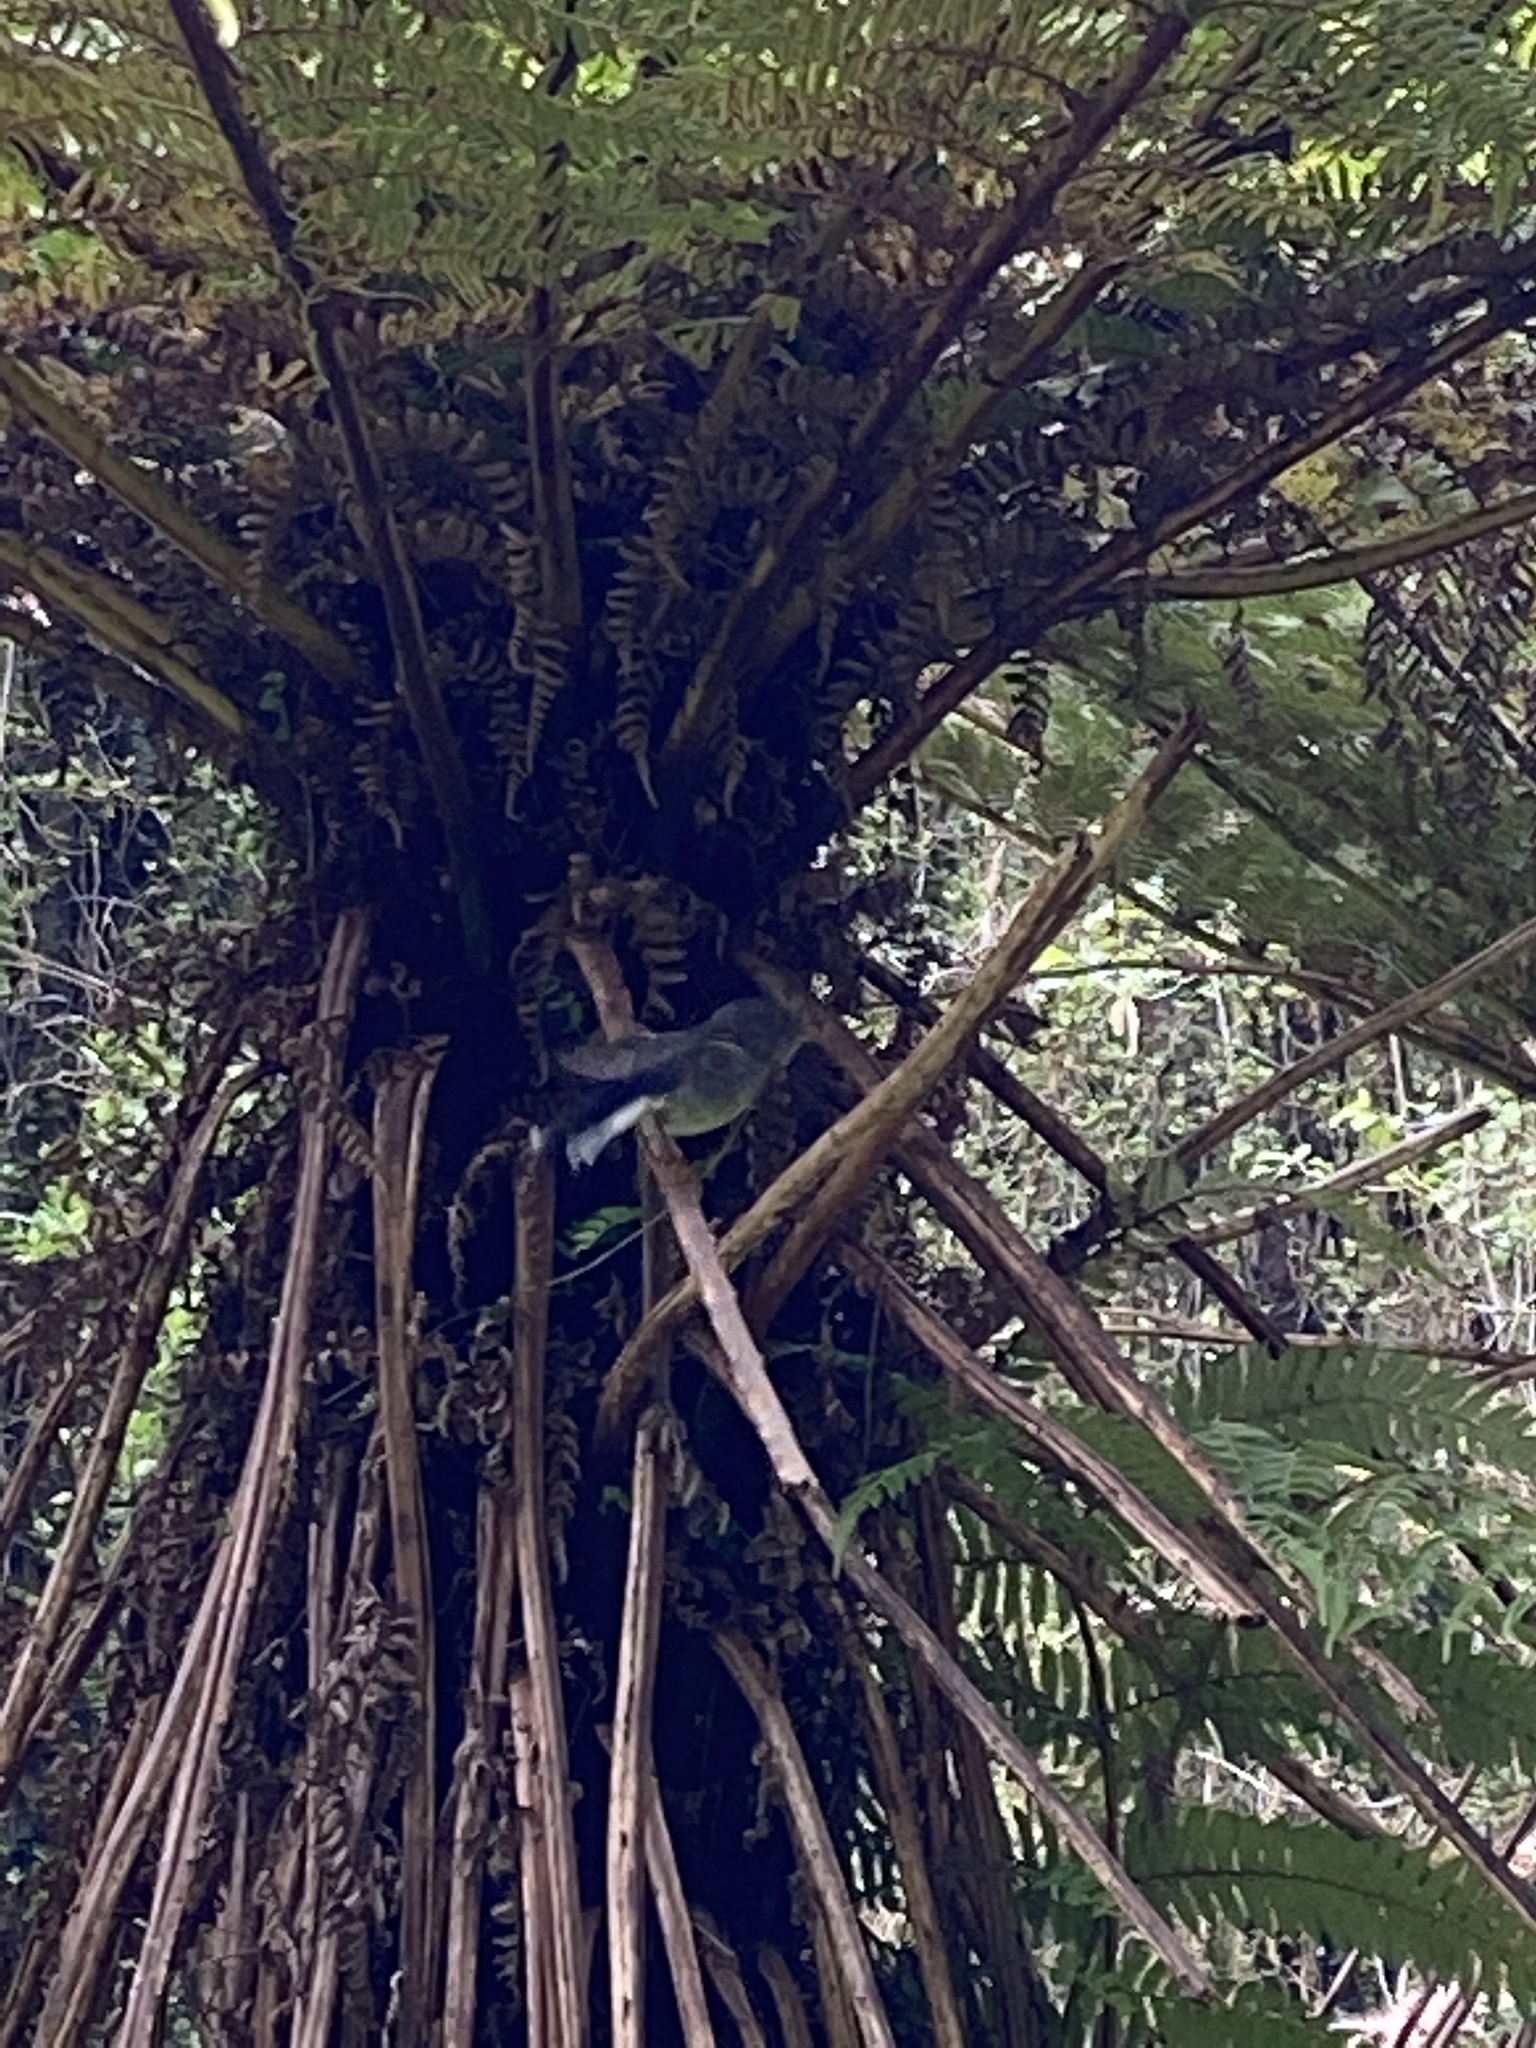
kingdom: Animalia
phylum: Chordata
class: Aves
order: Passeriformes
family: Petroicidae
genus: Petroica
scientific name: Petroica macrocephala
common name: Tomtit
